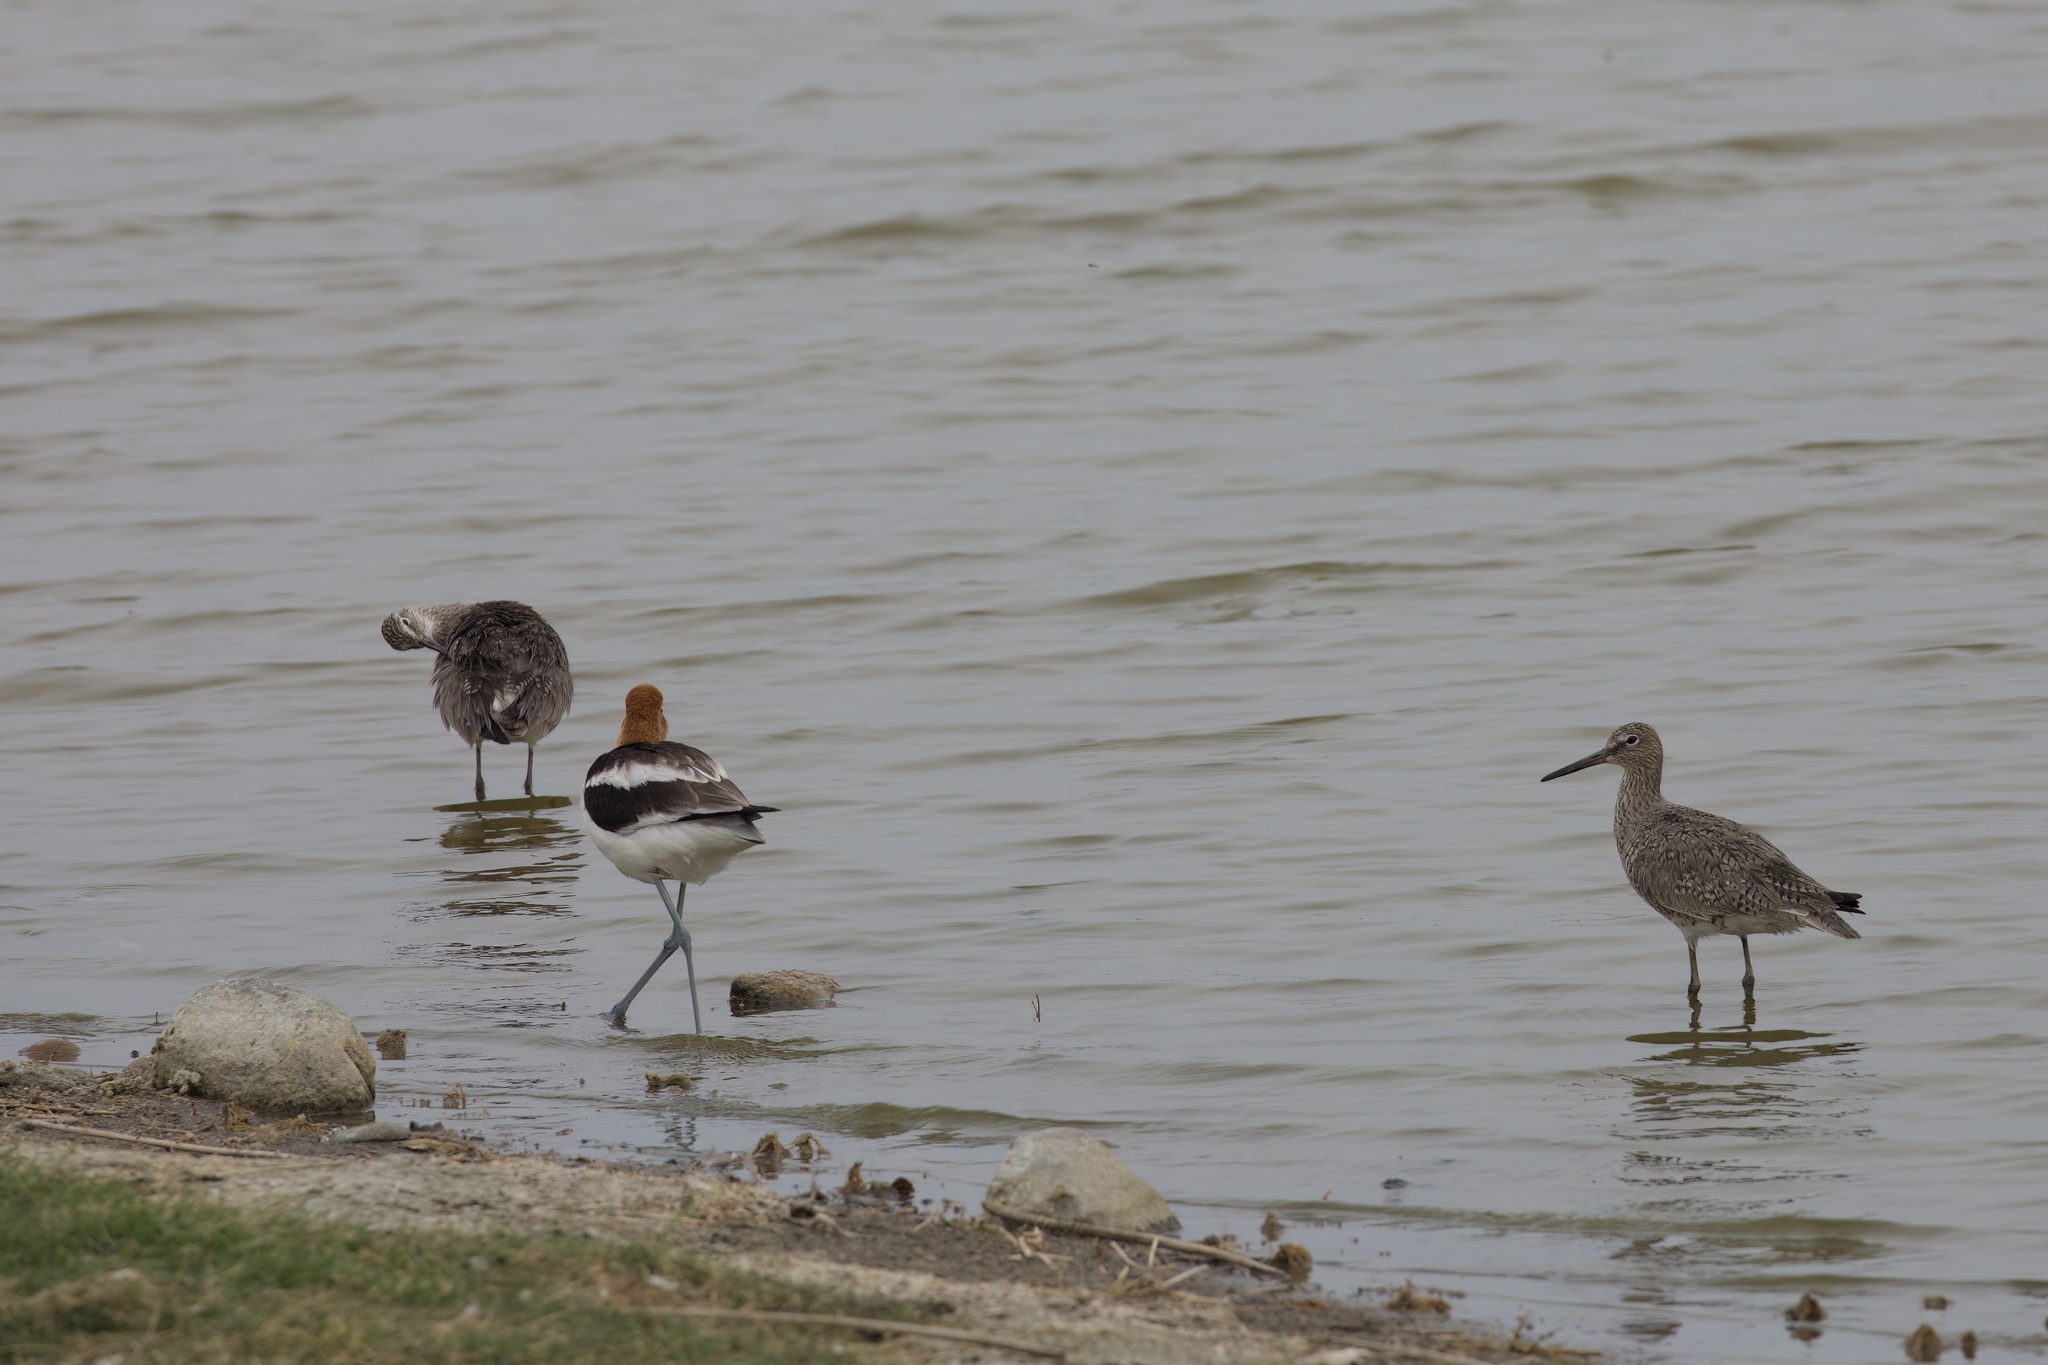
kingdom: Animalia
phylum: Chordata
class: Aves
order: Charadriiformes
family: Scolopacidae
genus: Tringa
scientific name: Tringa semipalmata
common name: Willet
